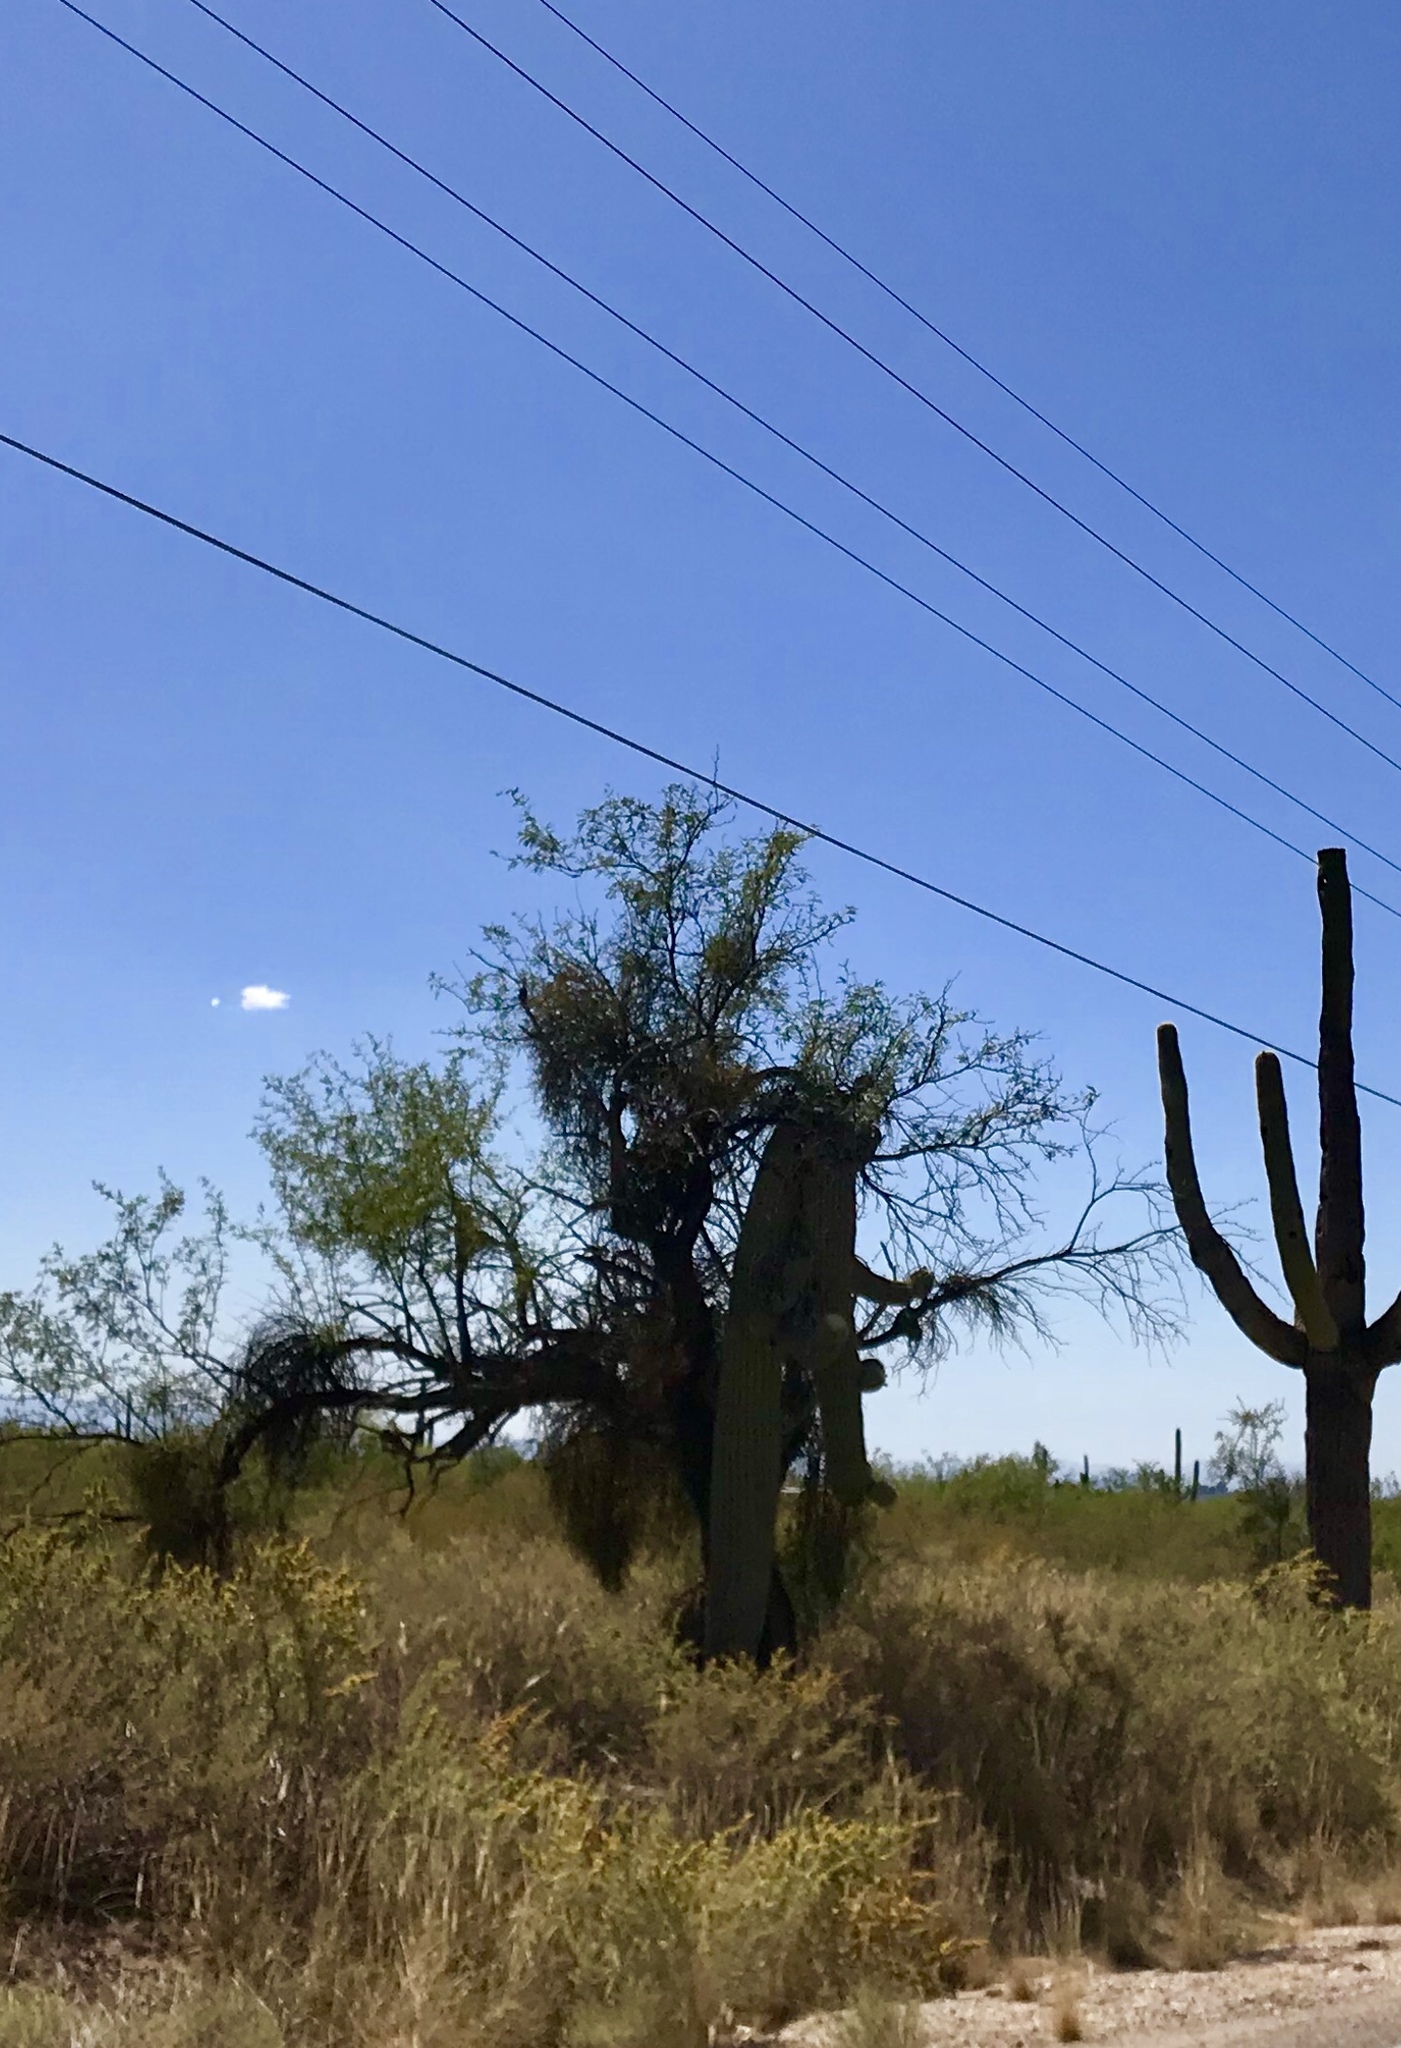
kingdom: Plantae
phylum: Tracheophyta
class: Magnoliopsida
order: Fabales
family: Fabaceae
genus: Prosopis
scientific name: Prosopis velutina
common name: Velvet mesquite
